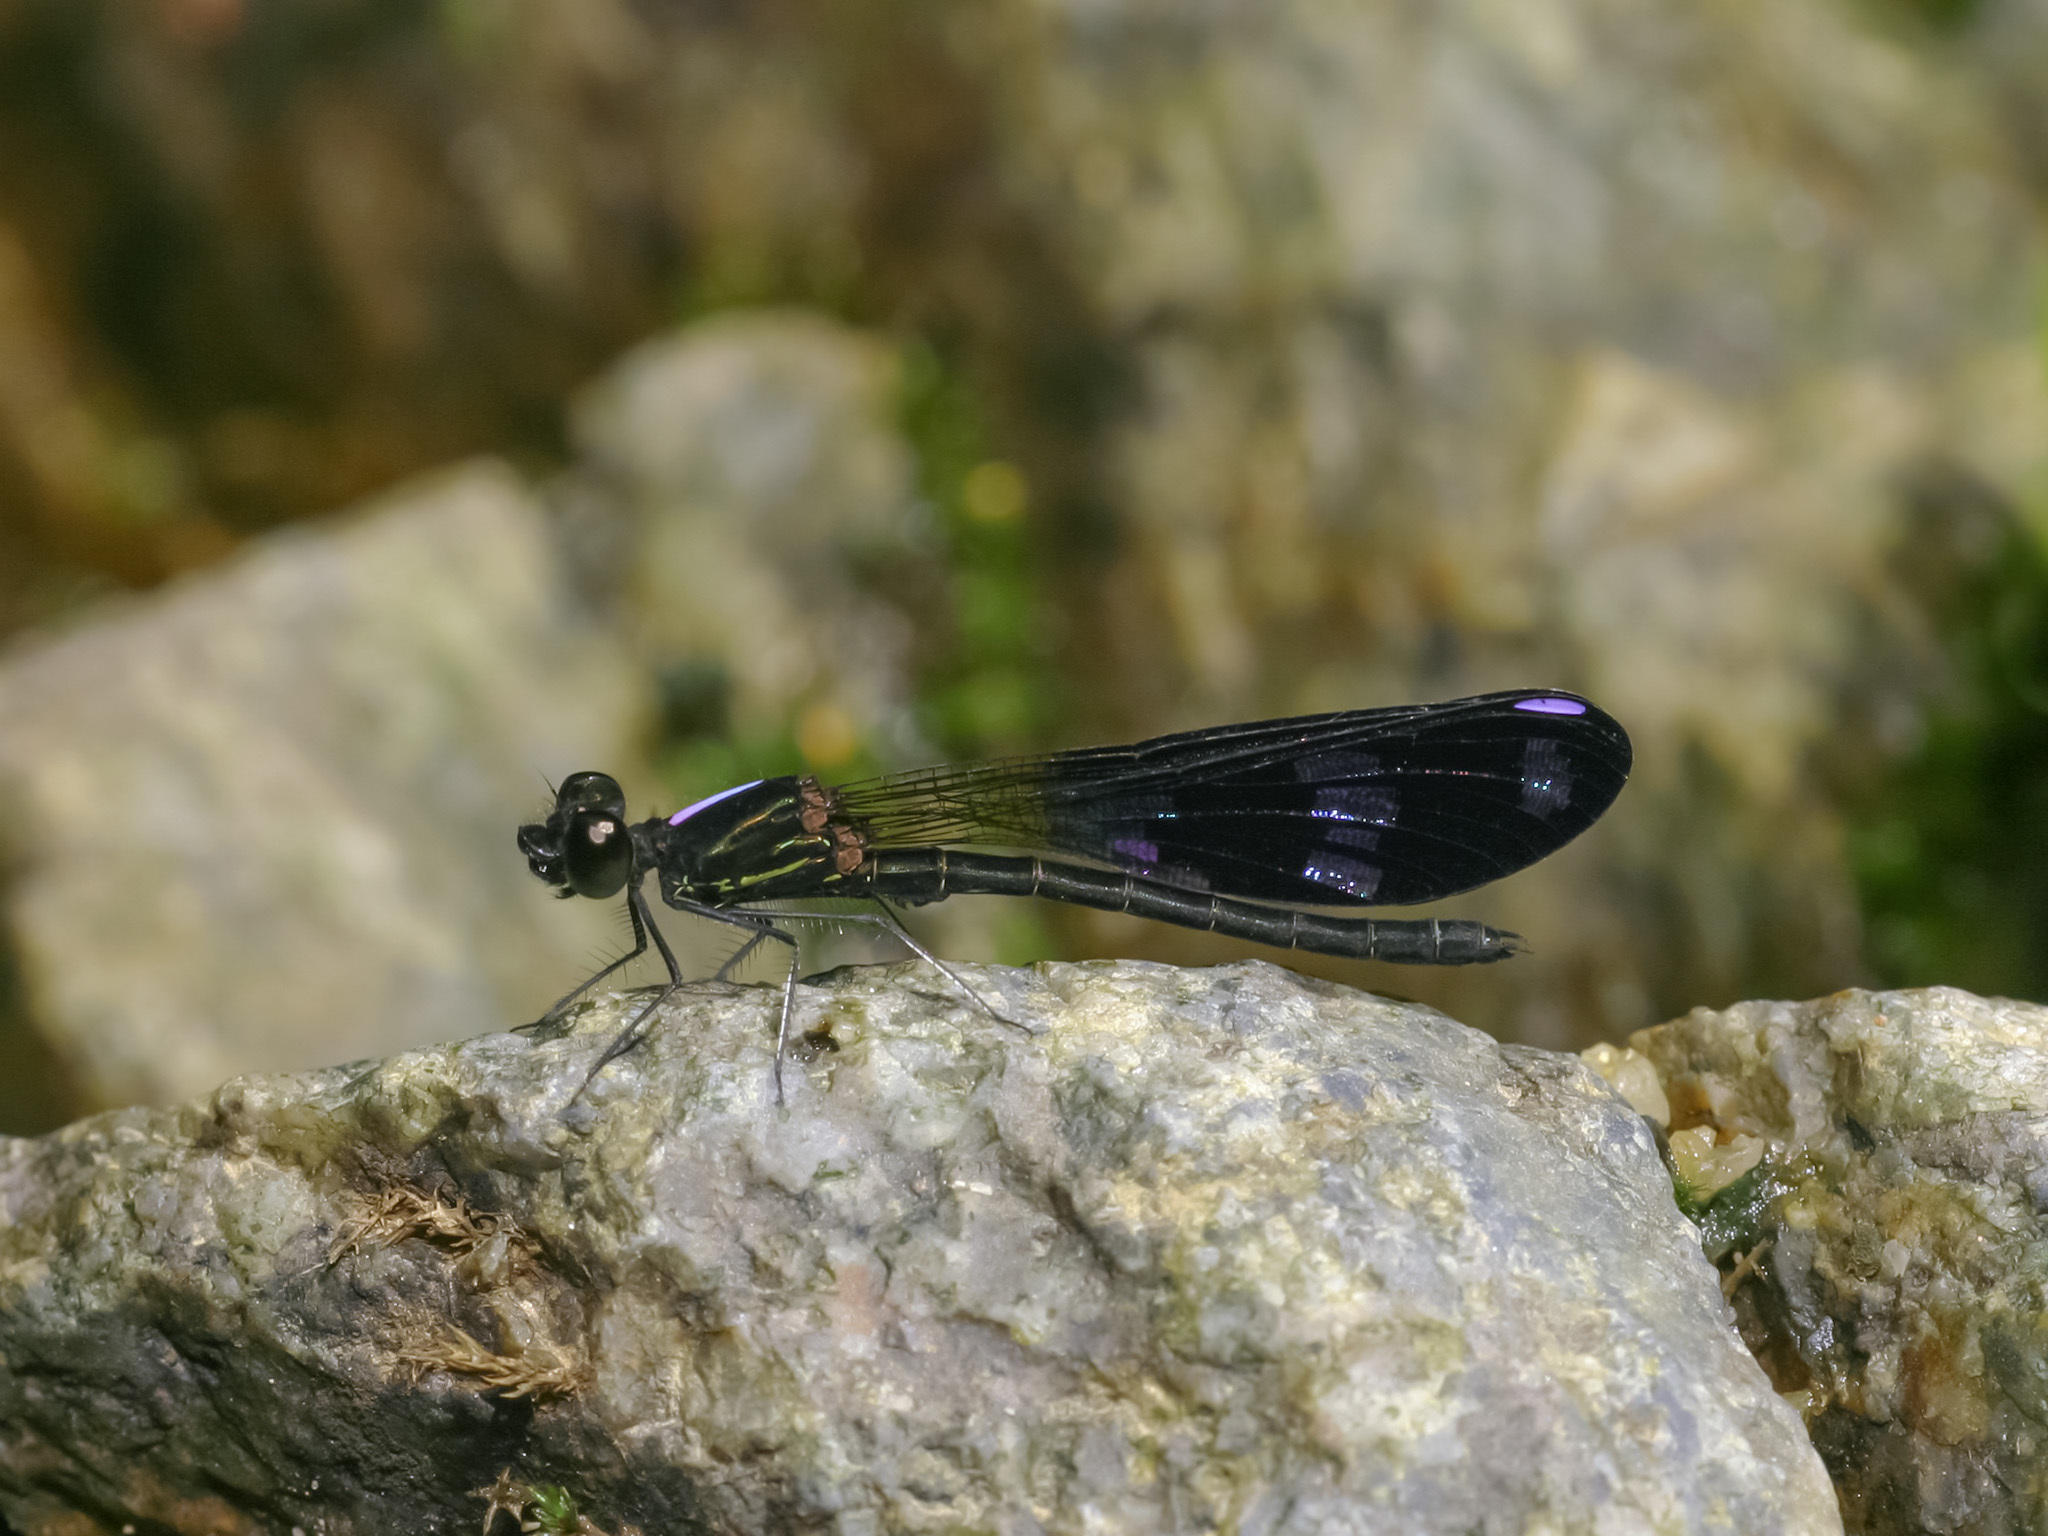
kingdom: Animalia
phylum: Arthropoda
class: Insecta
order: Odonata
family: Chlorocyphidae
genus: Aristocypha
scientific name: Aristocypha fenestrella
